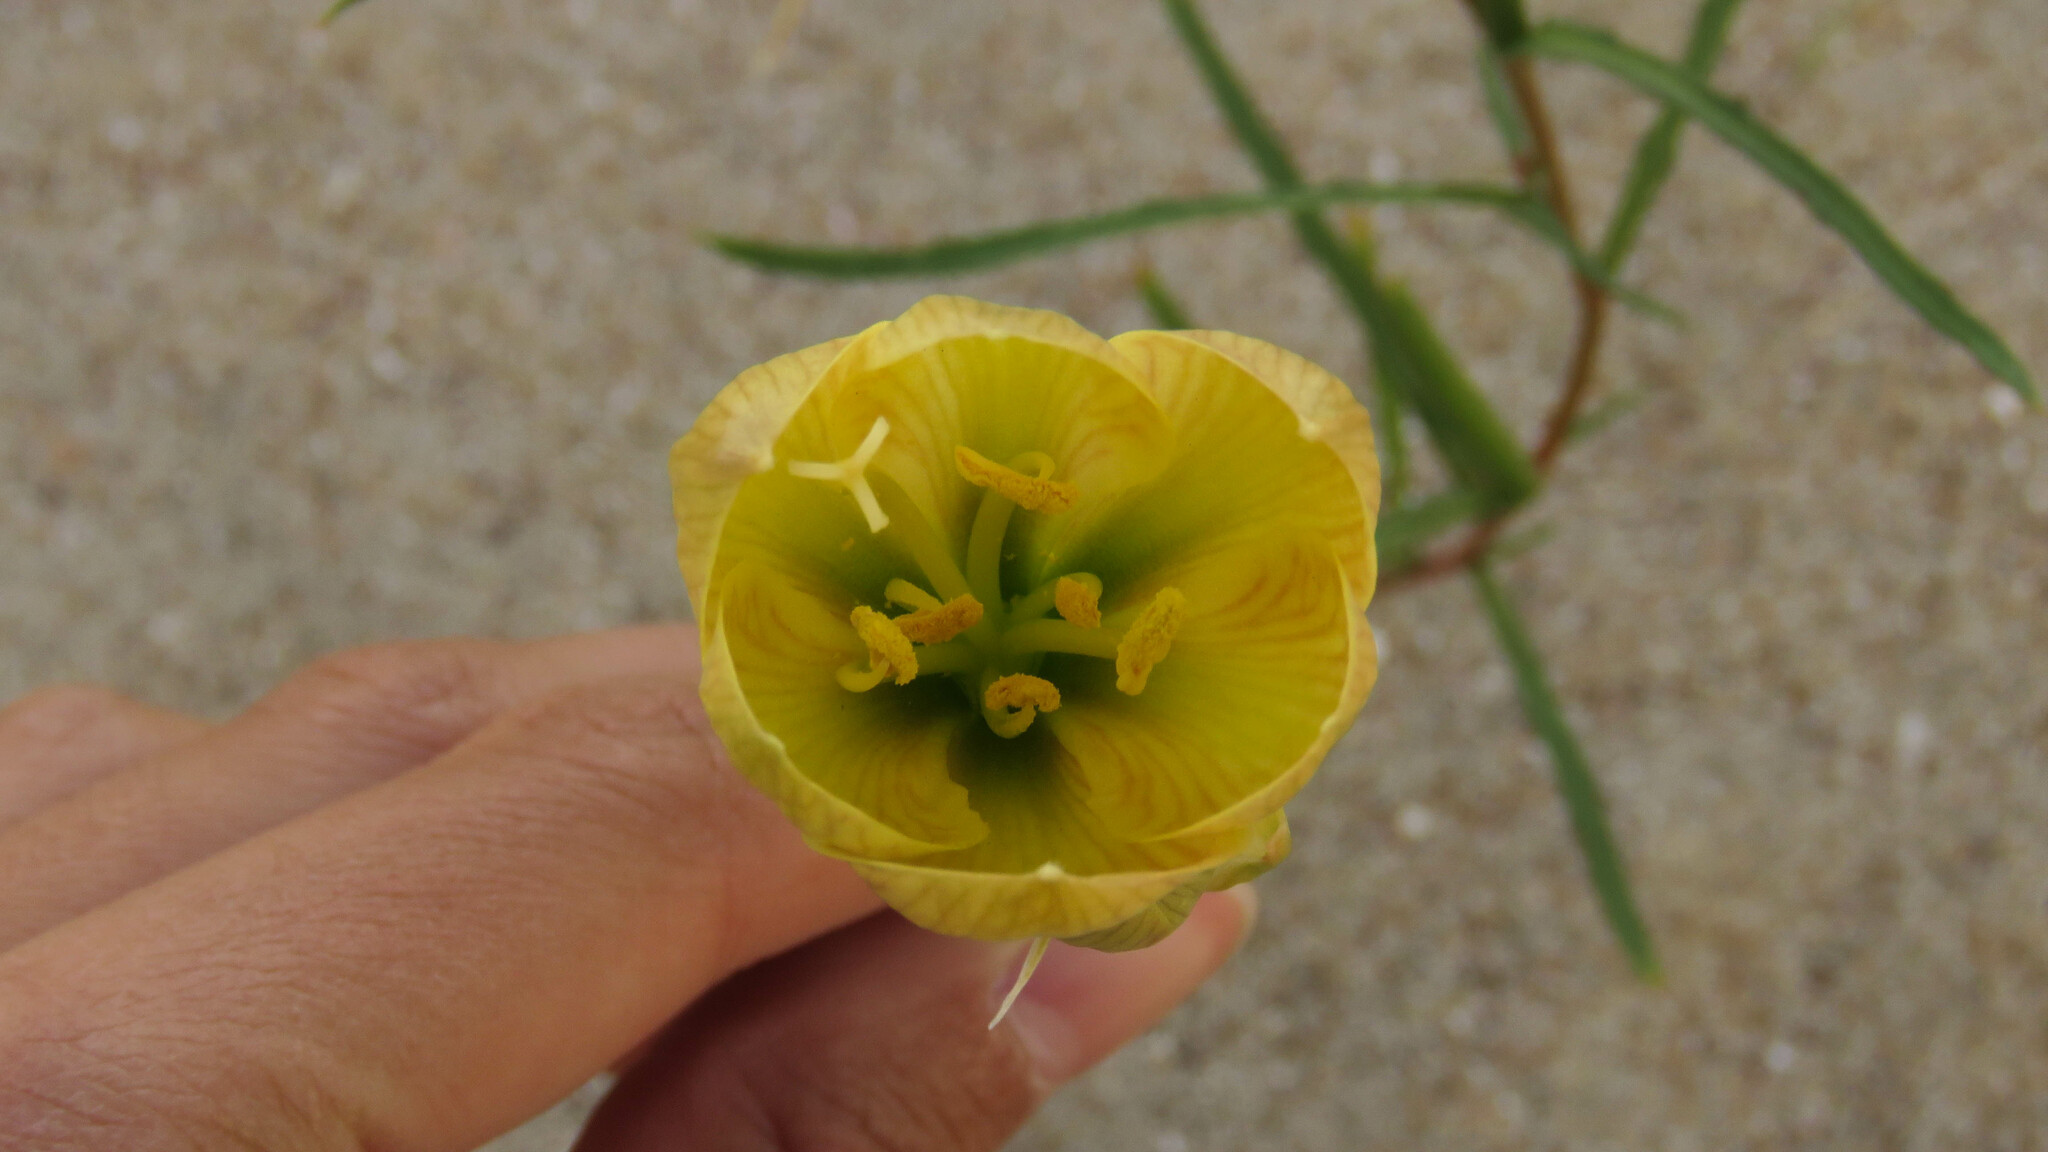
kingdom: Plantae
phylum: Tracheophyta
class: Liliopsida
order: Asparagales
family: Amaryllidaceae
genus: Zephyranthes
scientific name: Zephyranthes gilliesiana
